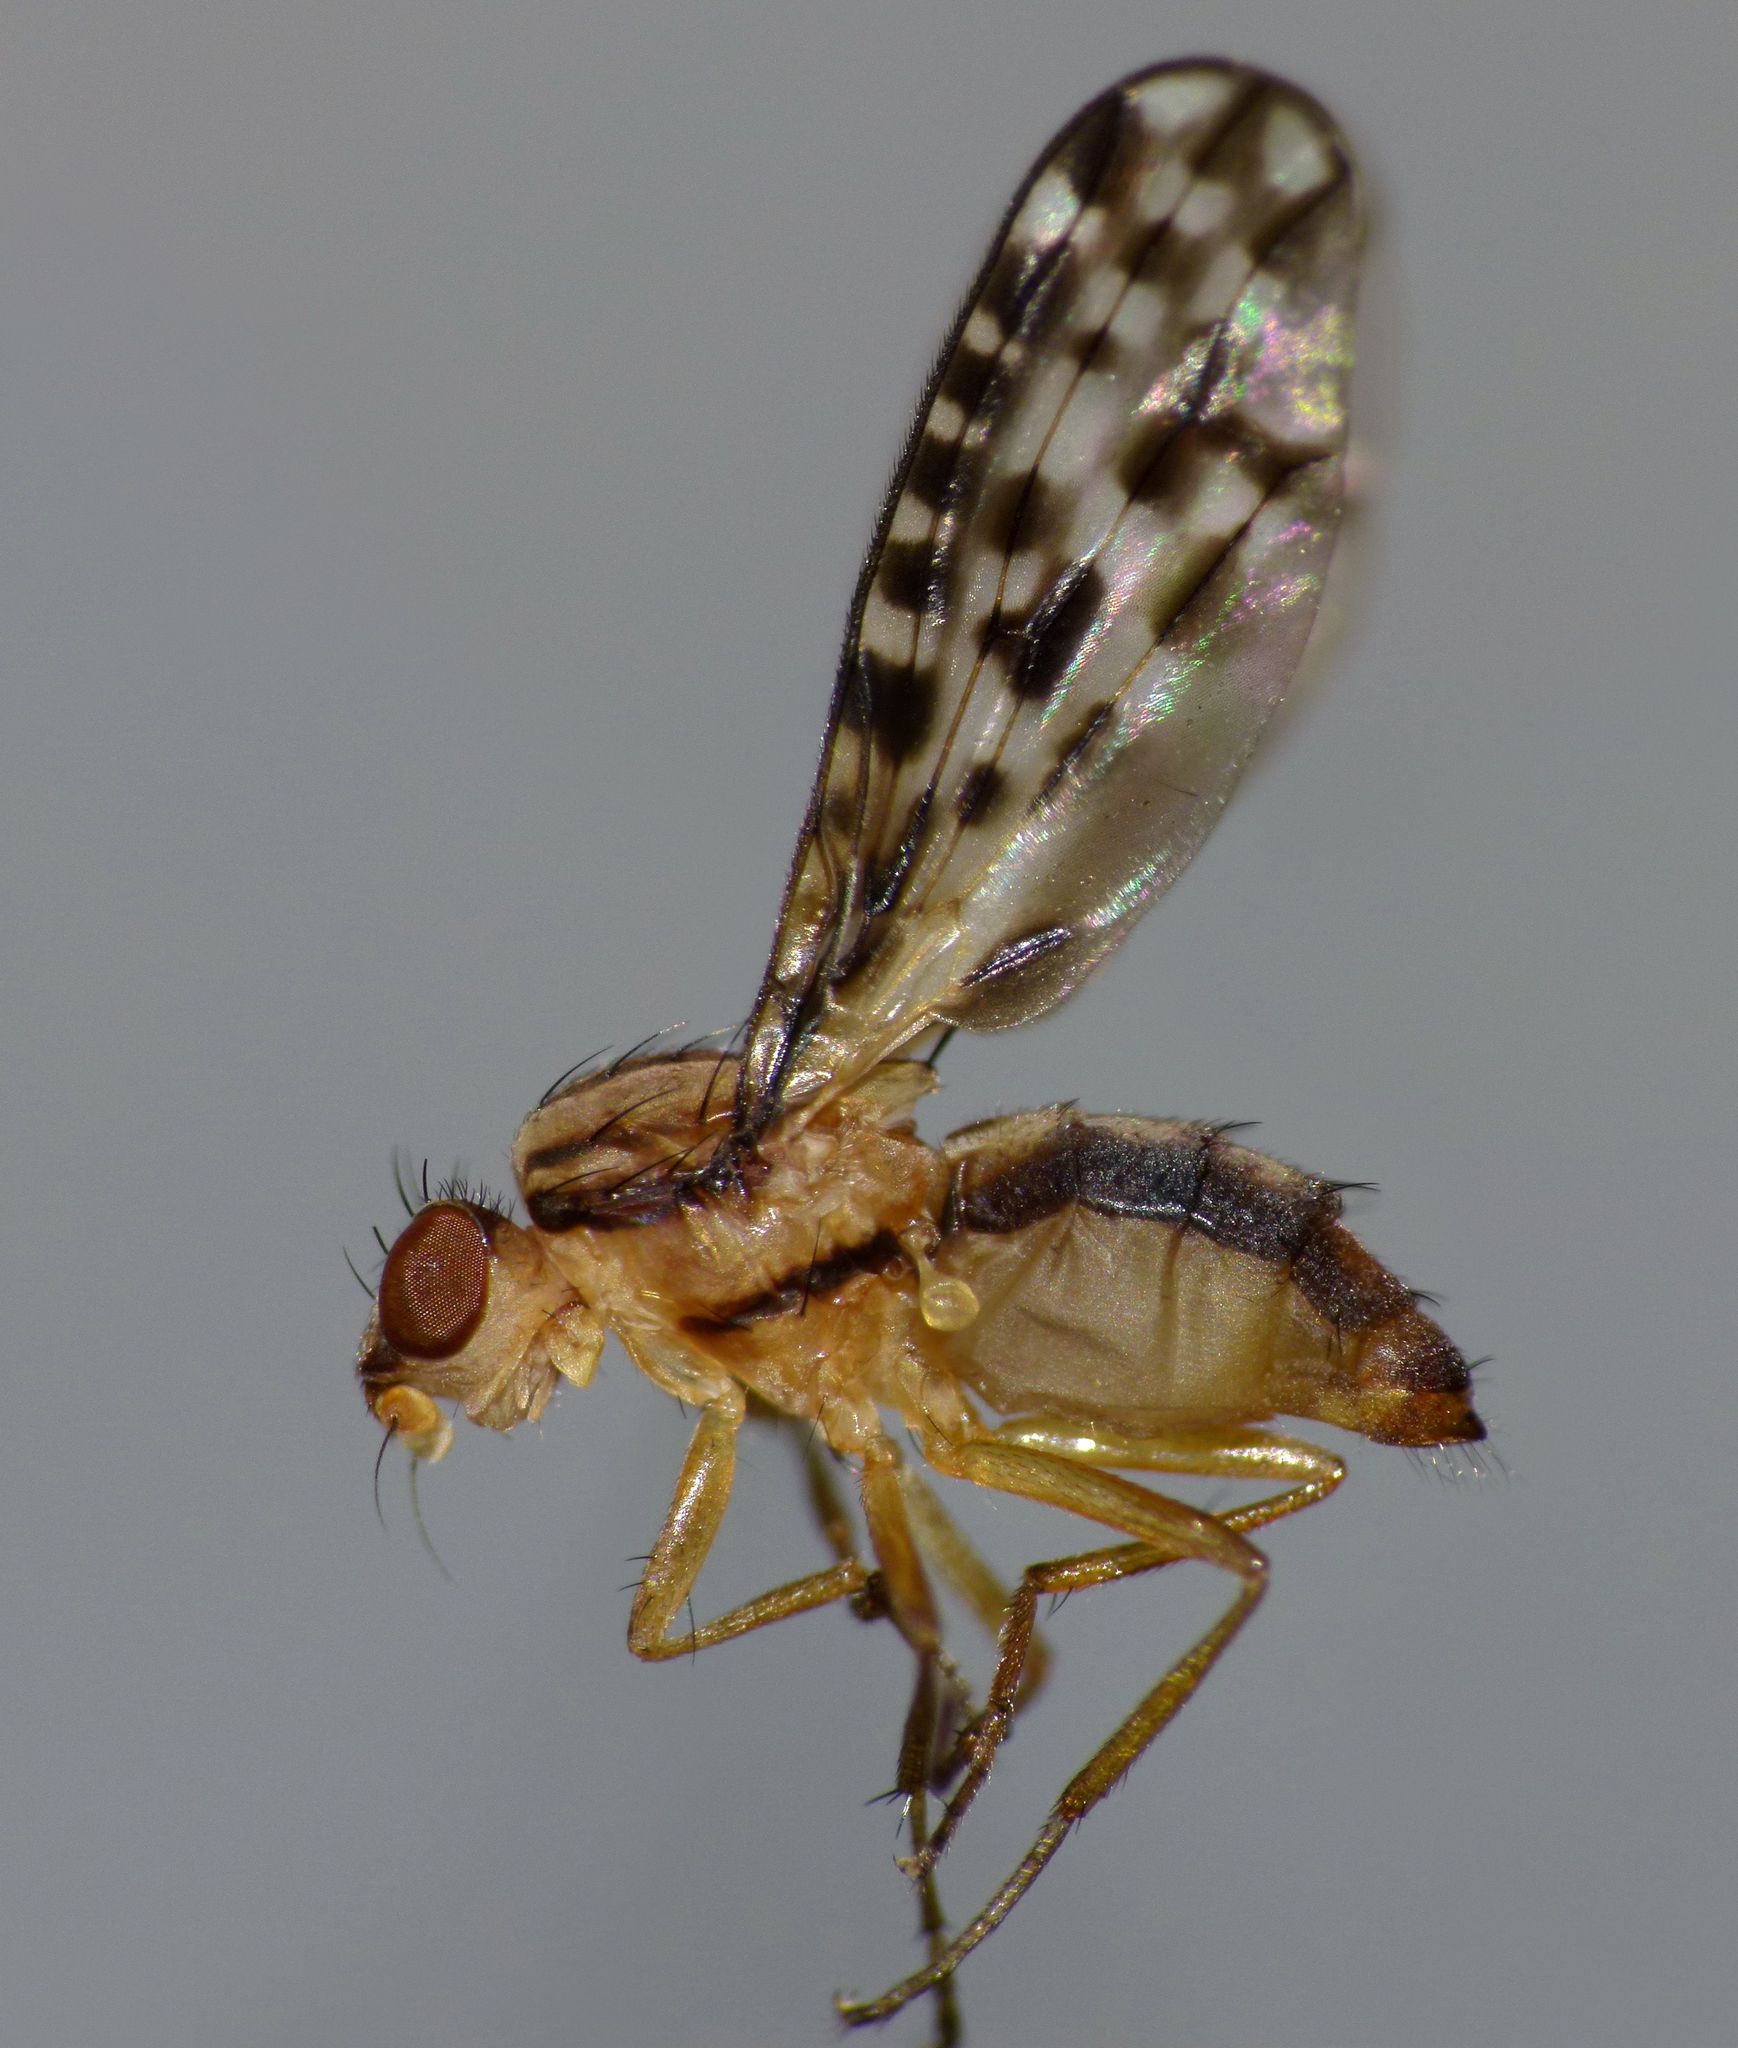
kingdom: Animalia
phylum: Arthropoda
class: Insecta
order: Diptera
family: Huttoninidae
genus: Huttonina
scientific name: Huttonina scutellaris
